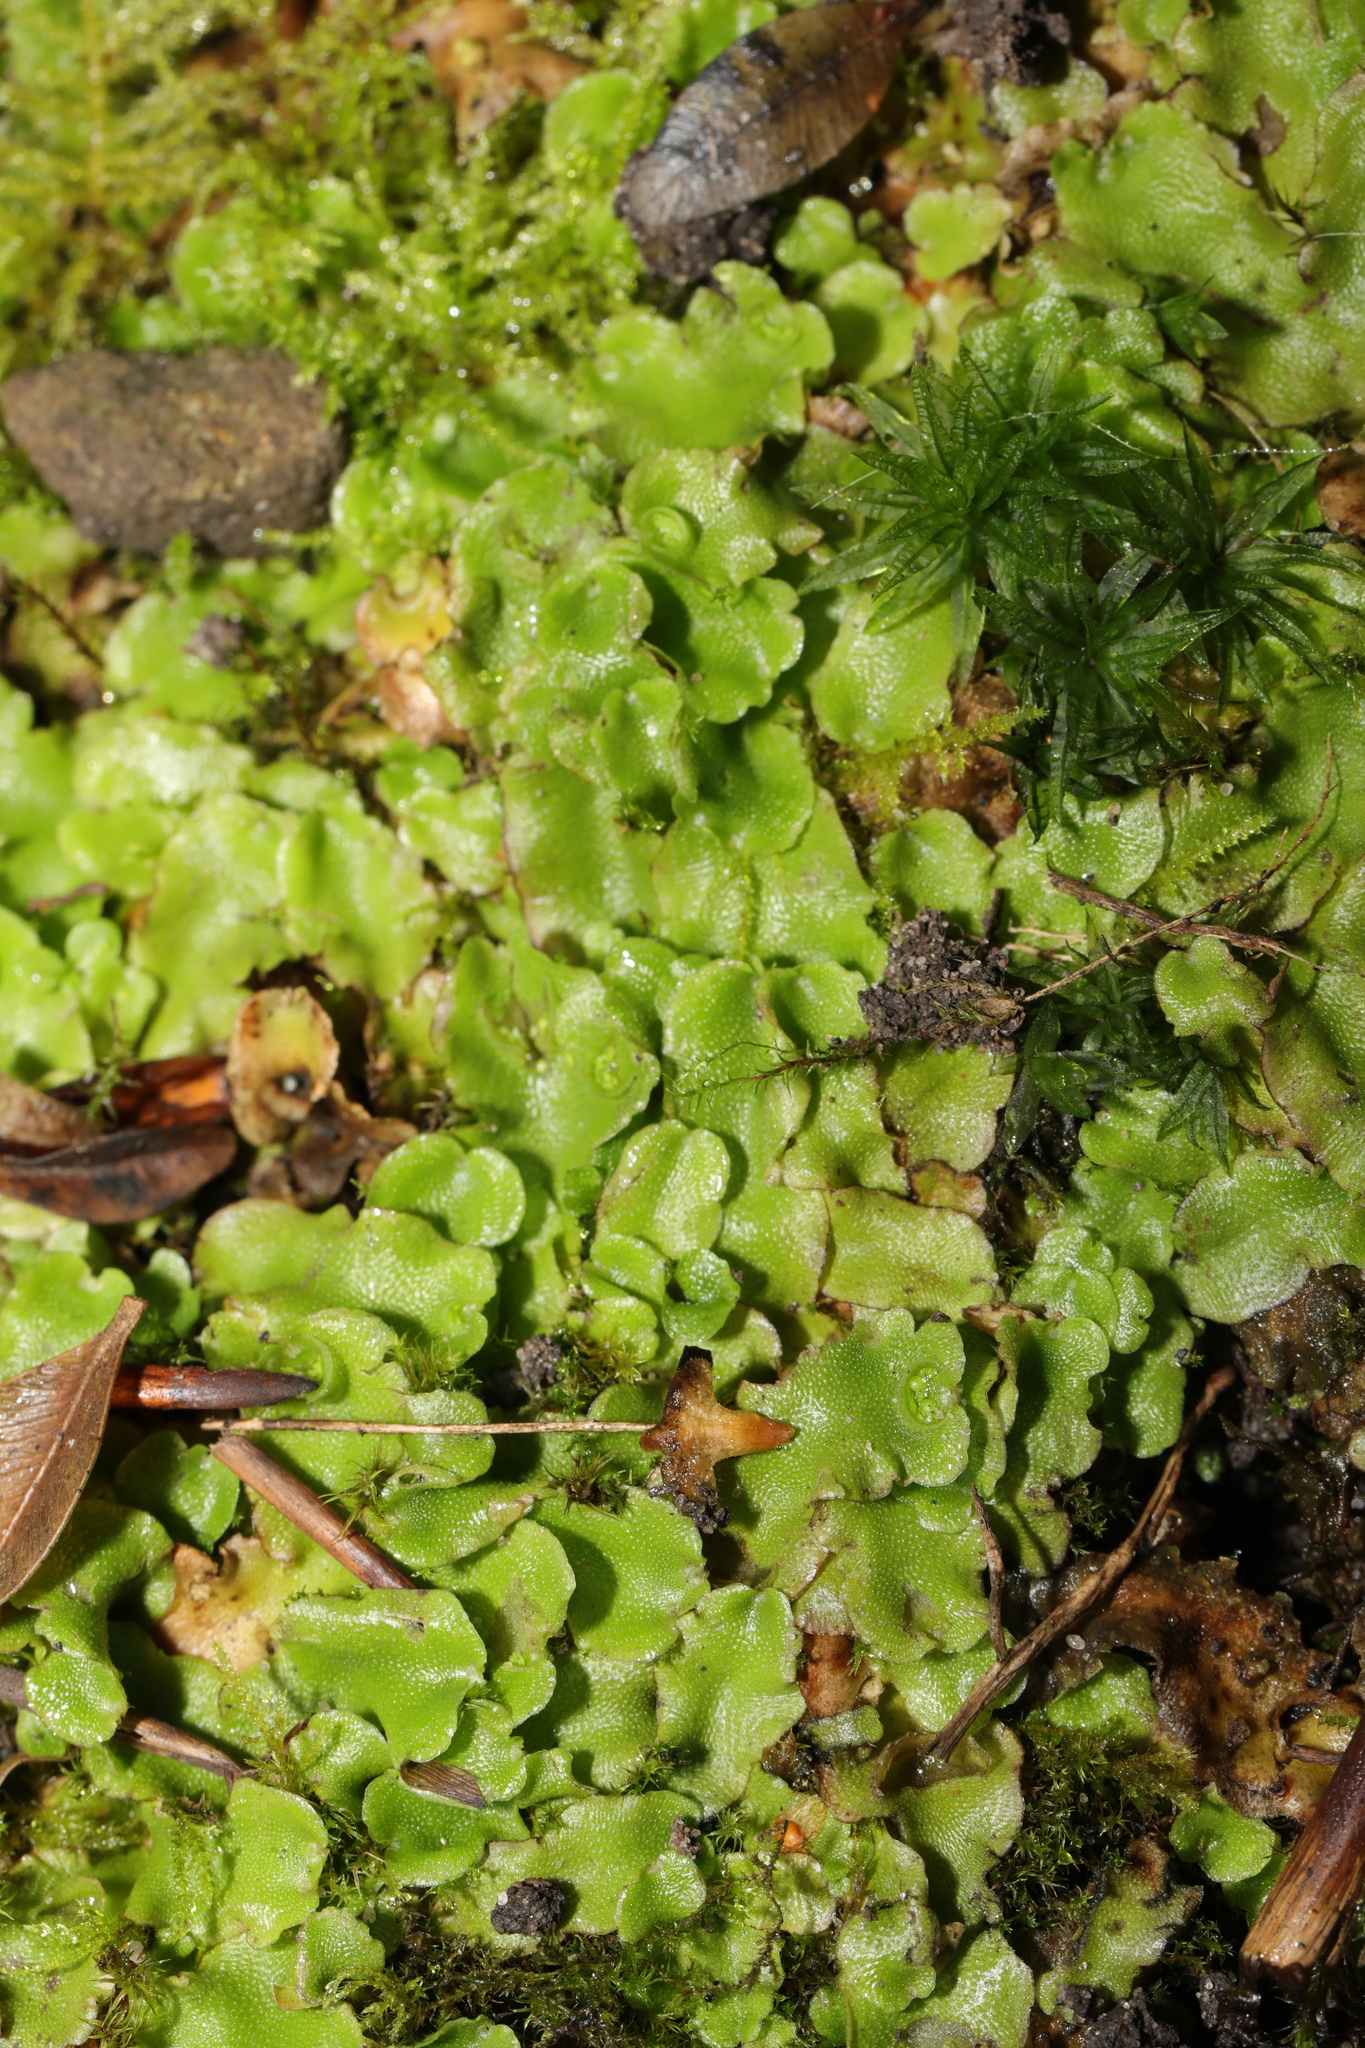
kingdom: Plantae
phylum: Marchantiophyta
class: Marchantiopsida
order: Lunulariales
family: Lunulariaceae
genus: Lunularia
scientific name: Lunularia cruciata
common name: Crescent-cup liverwort
